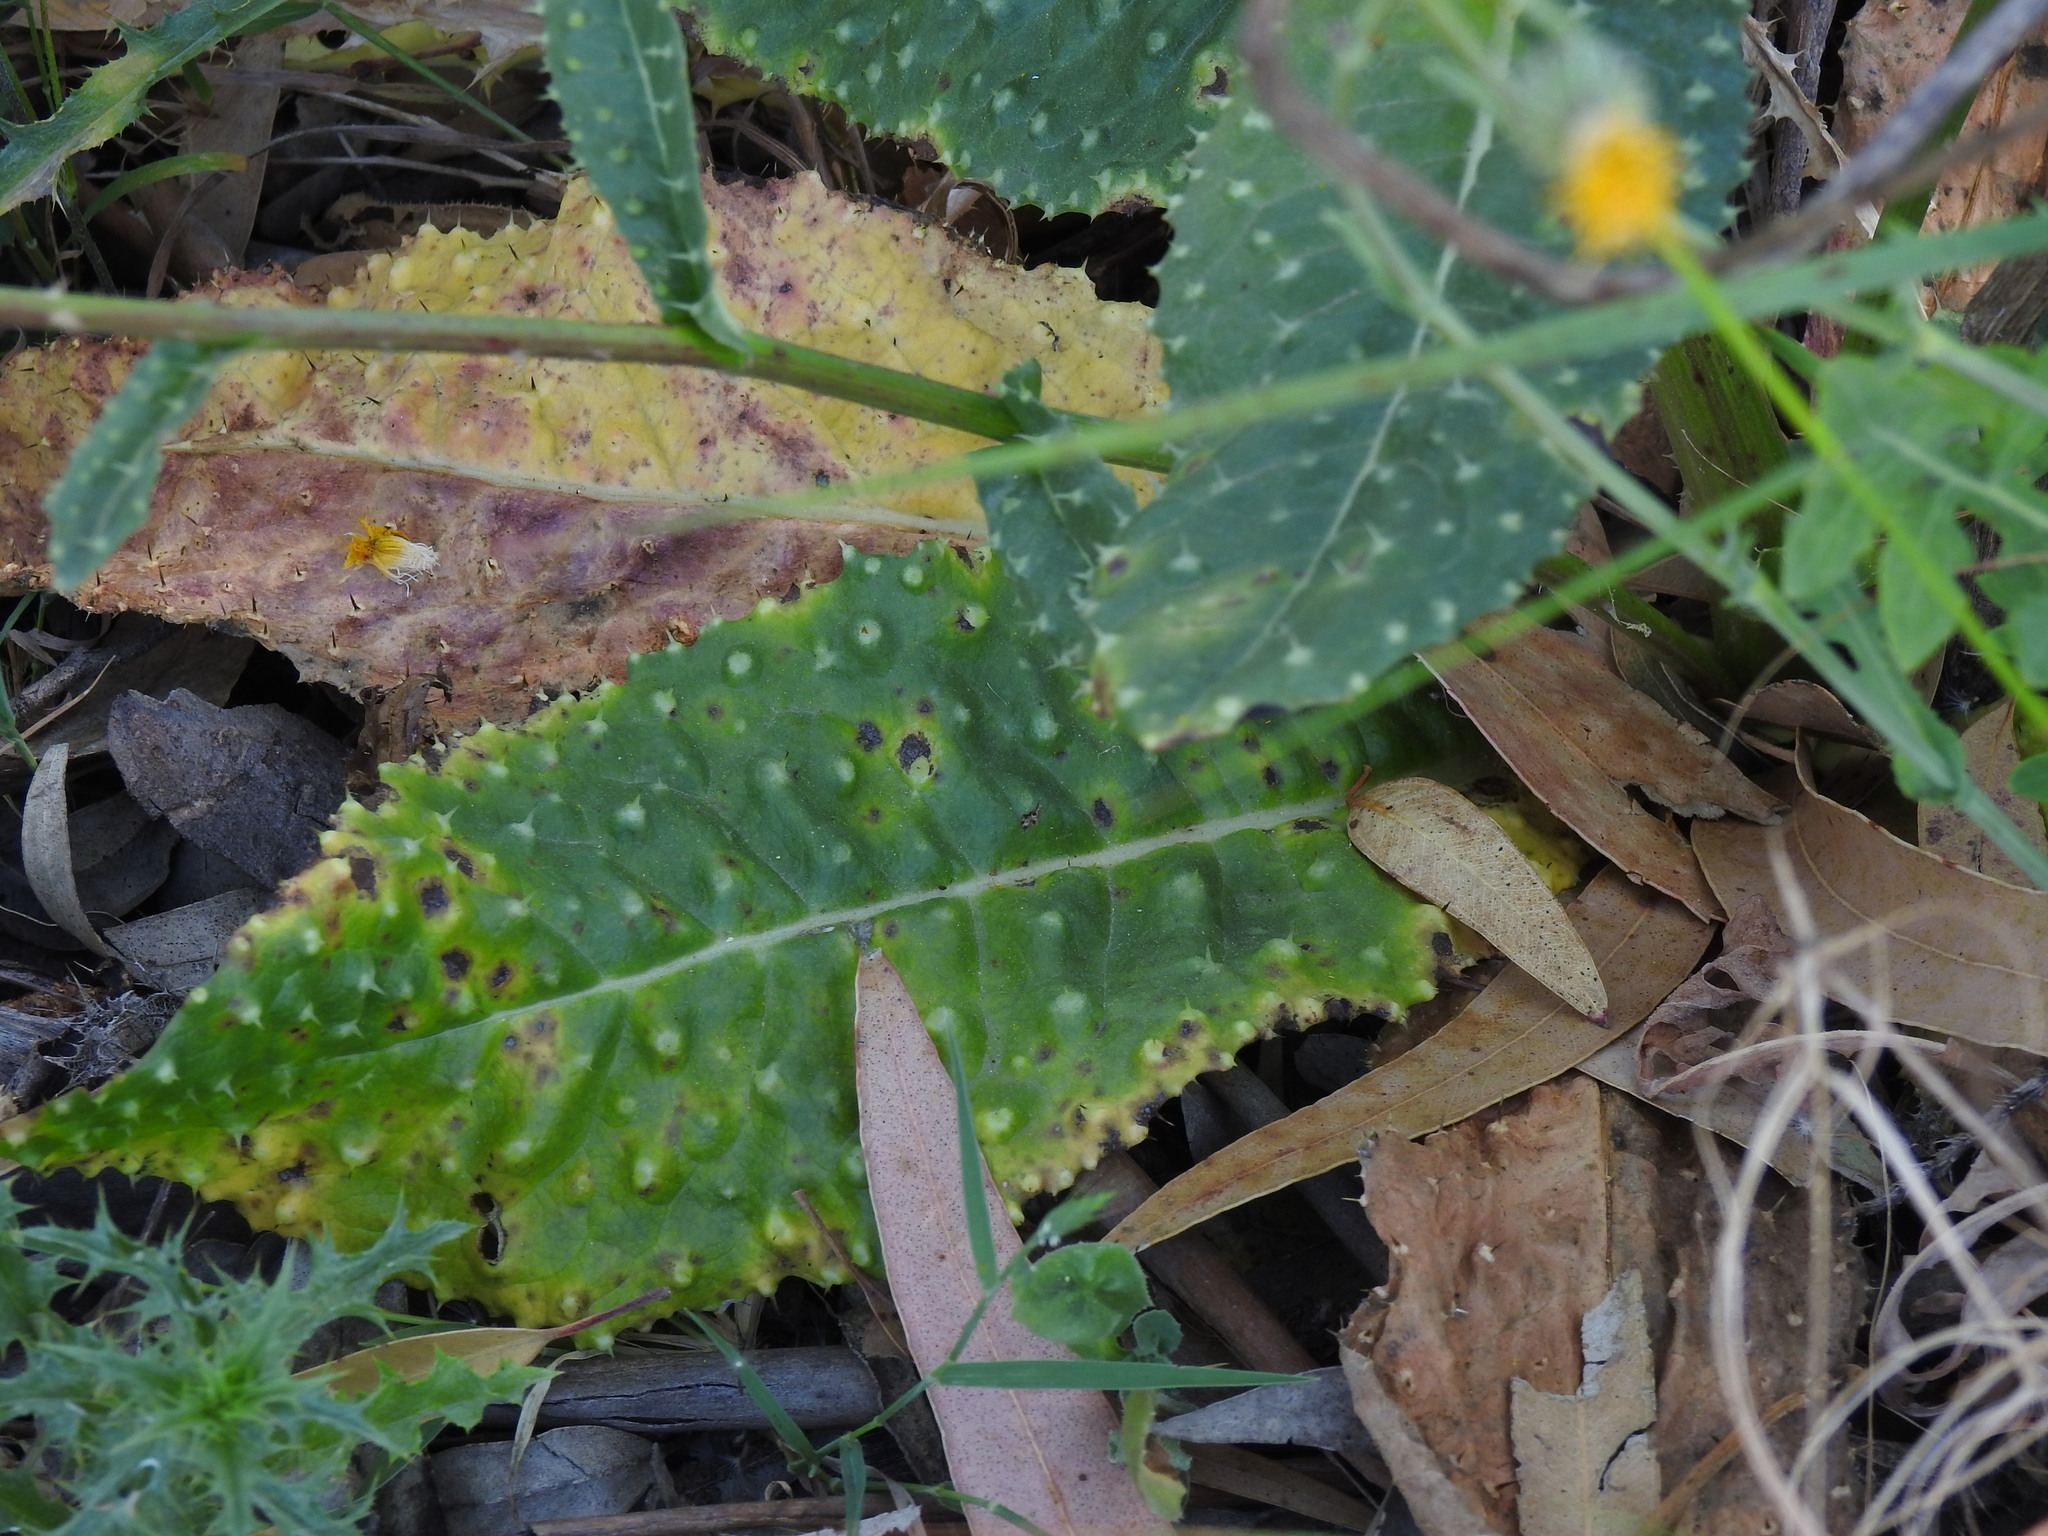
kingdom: Plantae
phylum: Tracheophyta
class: Magnoliopsida
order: Asterales
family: Asteraceae
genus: Helminthotheca
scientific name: Helminthotheca spinosa
